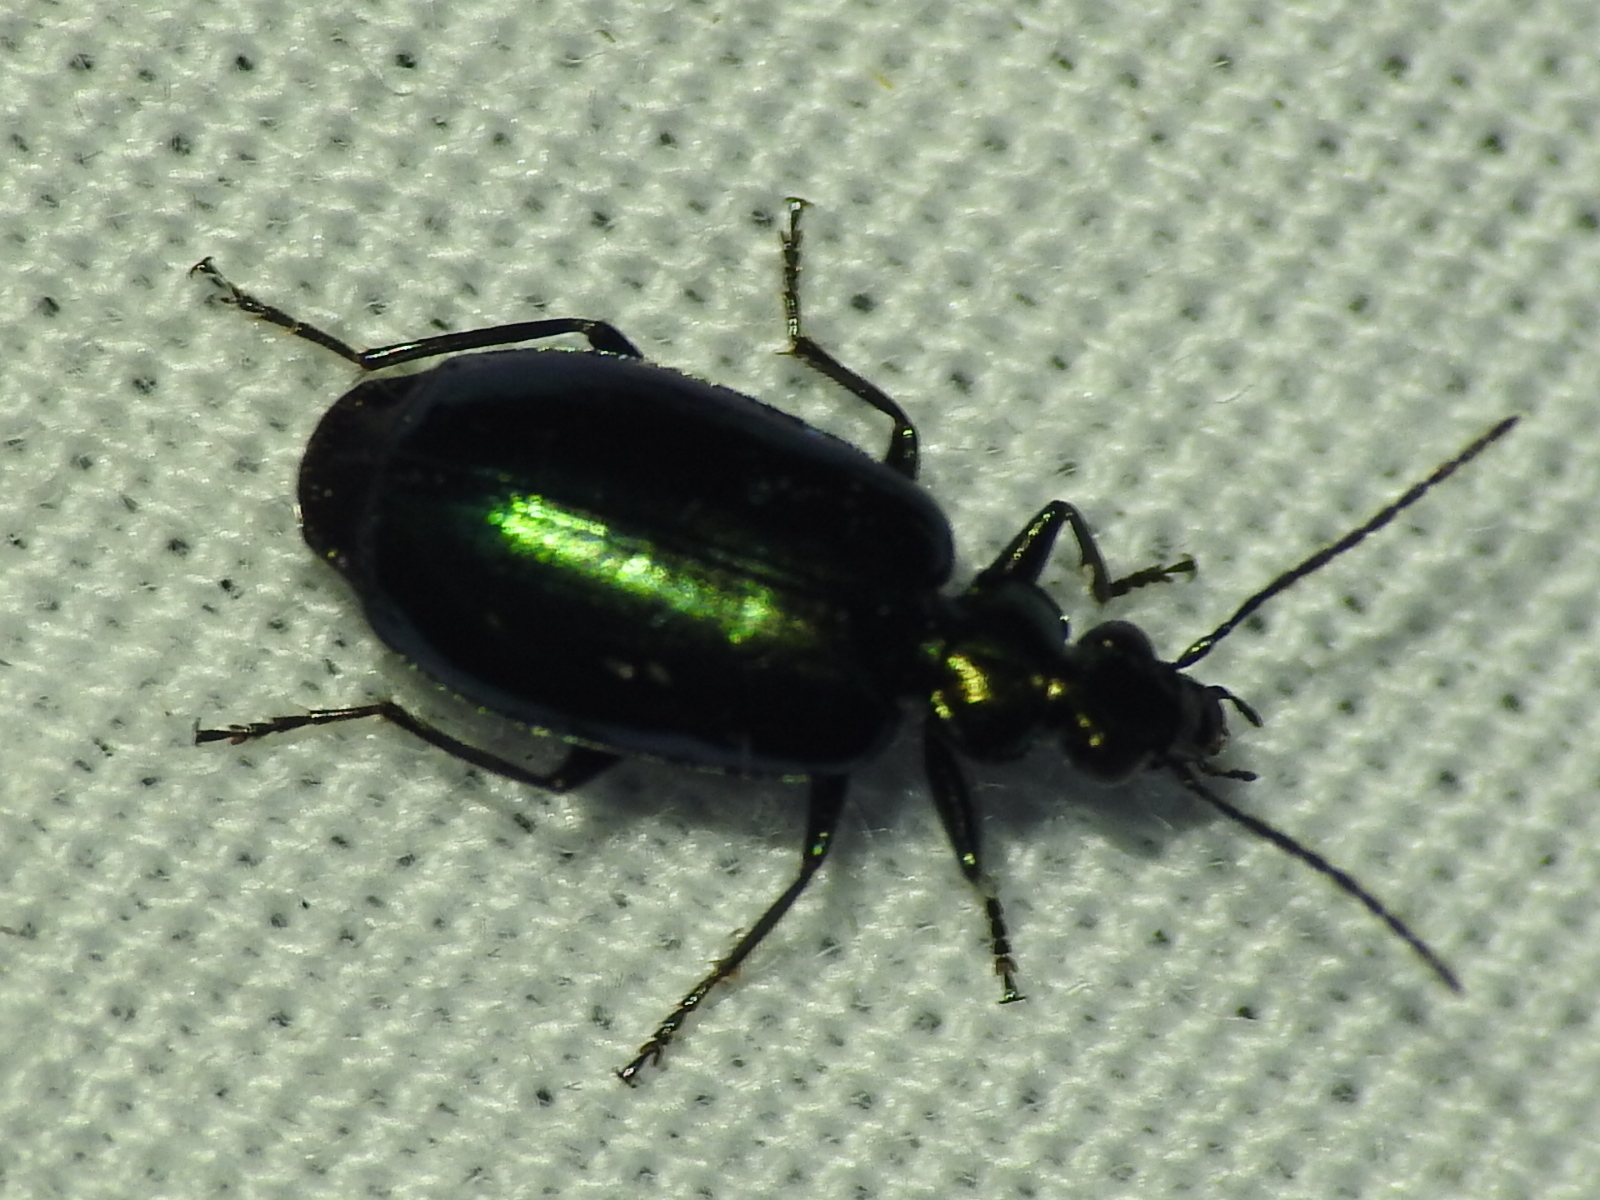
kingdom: Animalia
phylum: Arthropoda
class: Insecta
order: Coleoptera
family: Carabidae
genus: Lebia
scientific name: Lebia viridis
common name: Flower lebia beetle
